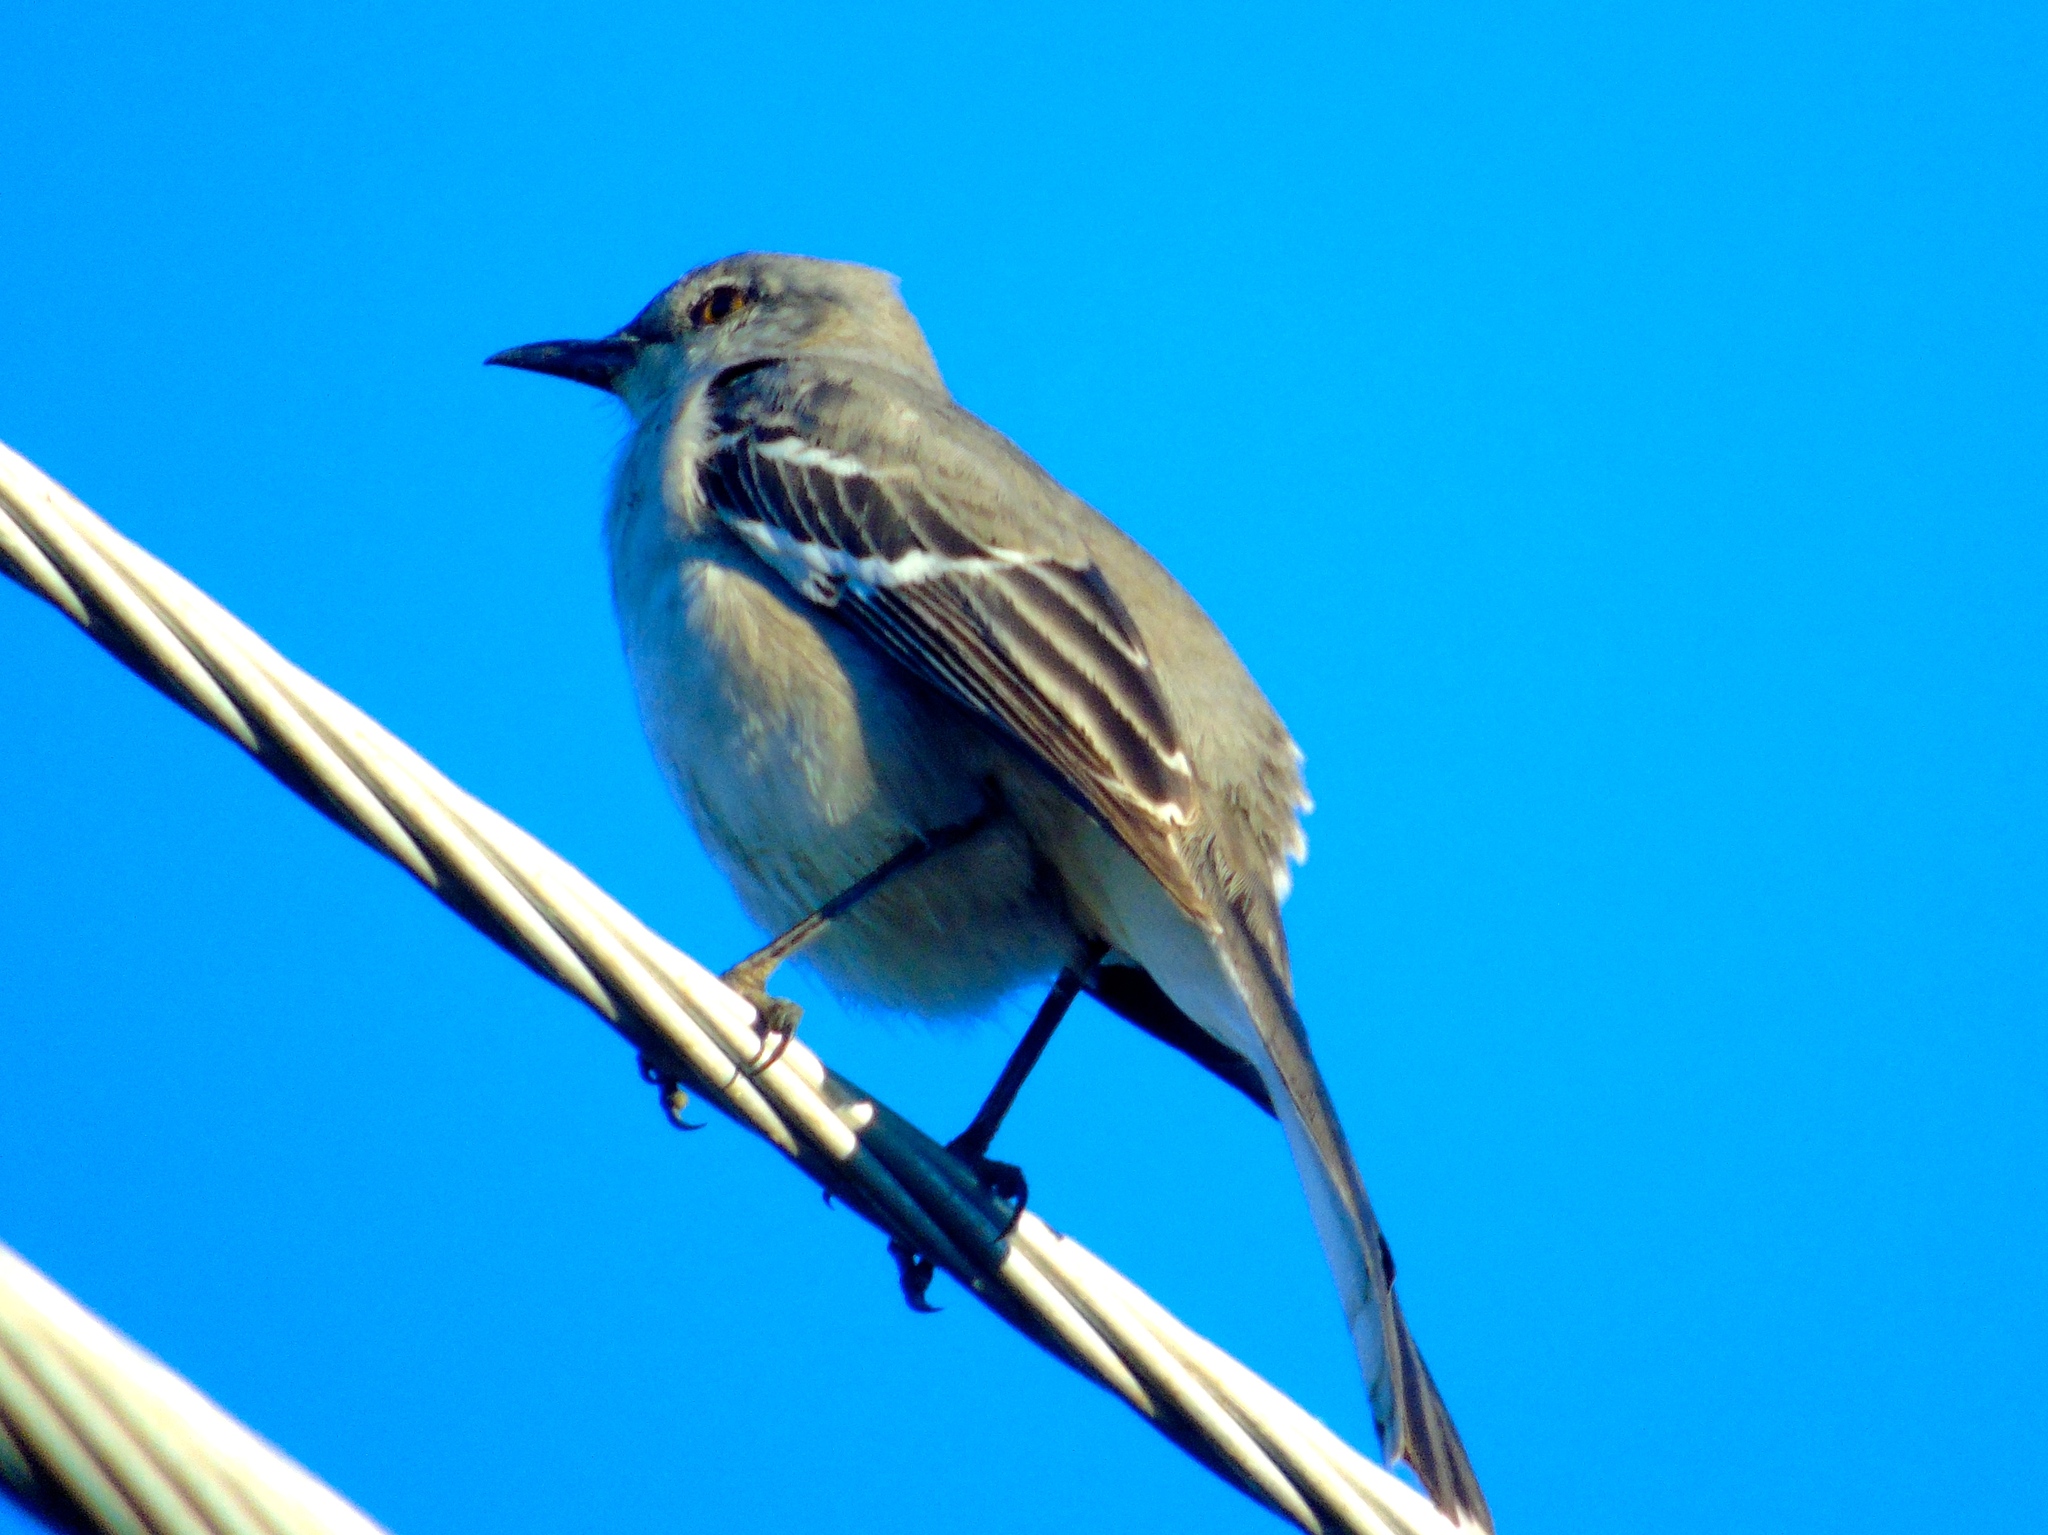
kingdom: Animalia
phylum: Chordata
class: Aves
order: Passeriformes
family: Mimidae
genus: Mimus
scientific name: Mimus polyglottos
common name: Northern mockingbird
